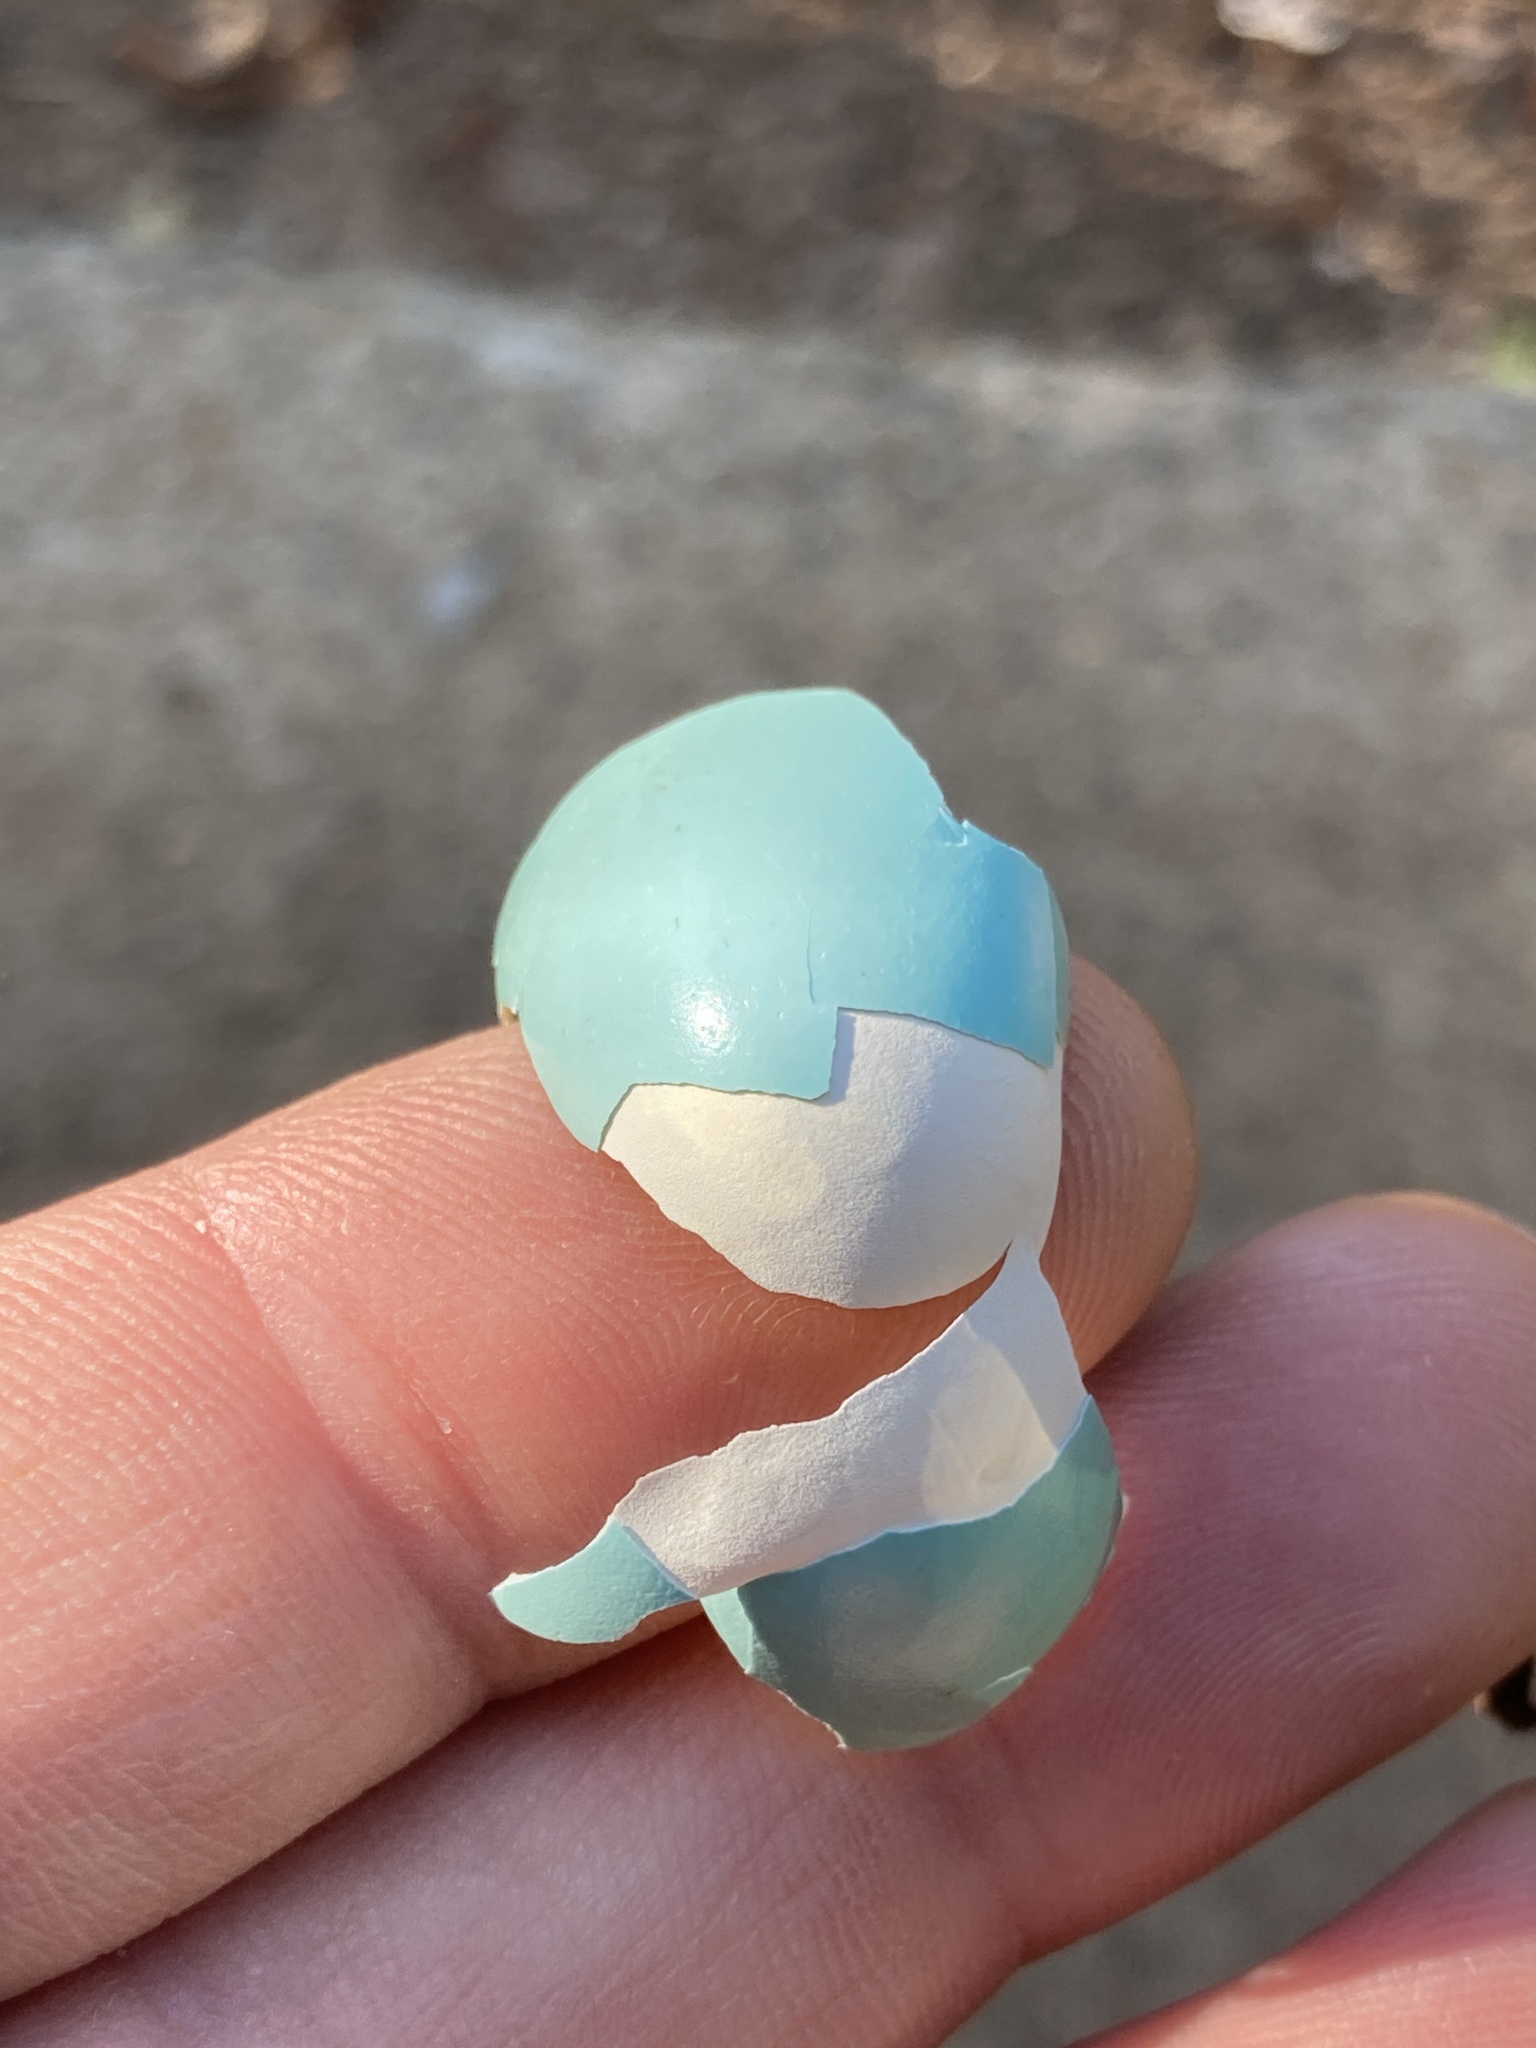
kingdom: Animalia
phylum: Chordata
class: Aves
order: Passeriformes
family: Turdidae
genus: Turdus
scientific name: Turdus migratorius
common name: American robin
